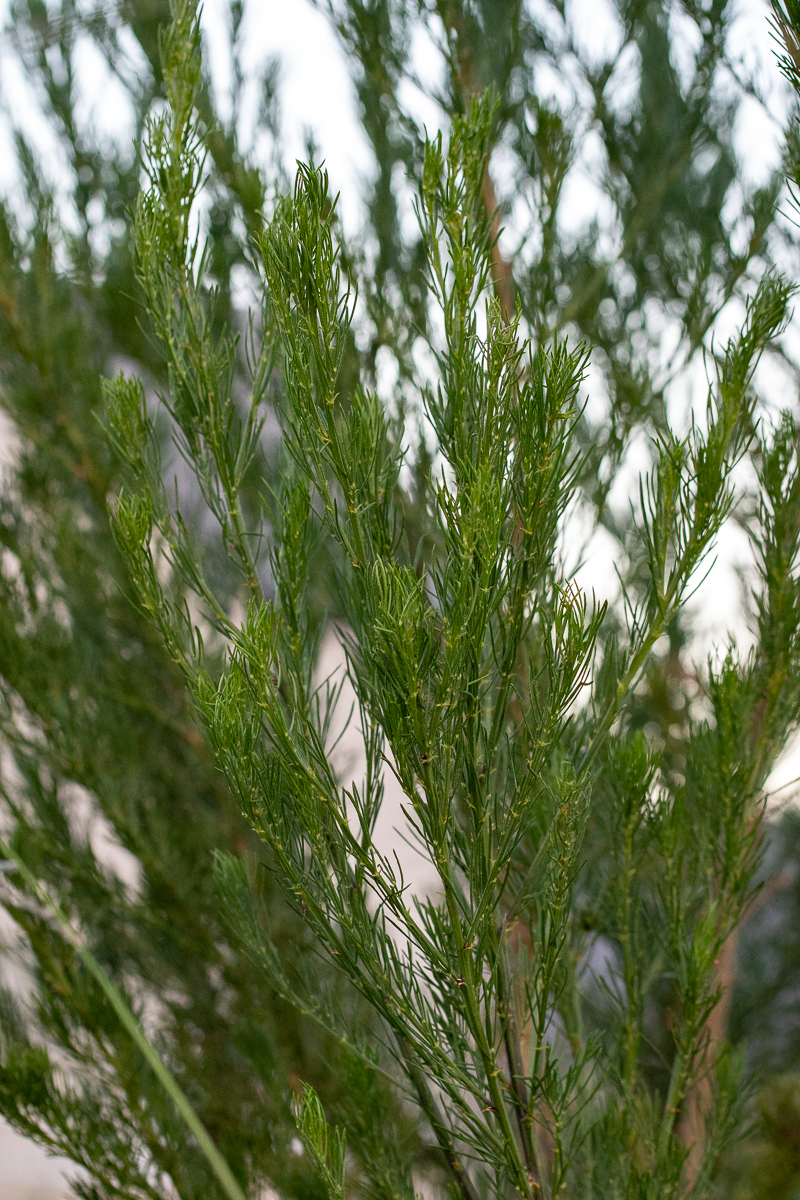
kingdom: Plantae
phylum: Tracheophyta
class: Magnoliopsida
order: Fabales
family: Fabaceae
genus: Psoralea
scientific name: Psoralea pinnata
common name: African scurfpea
